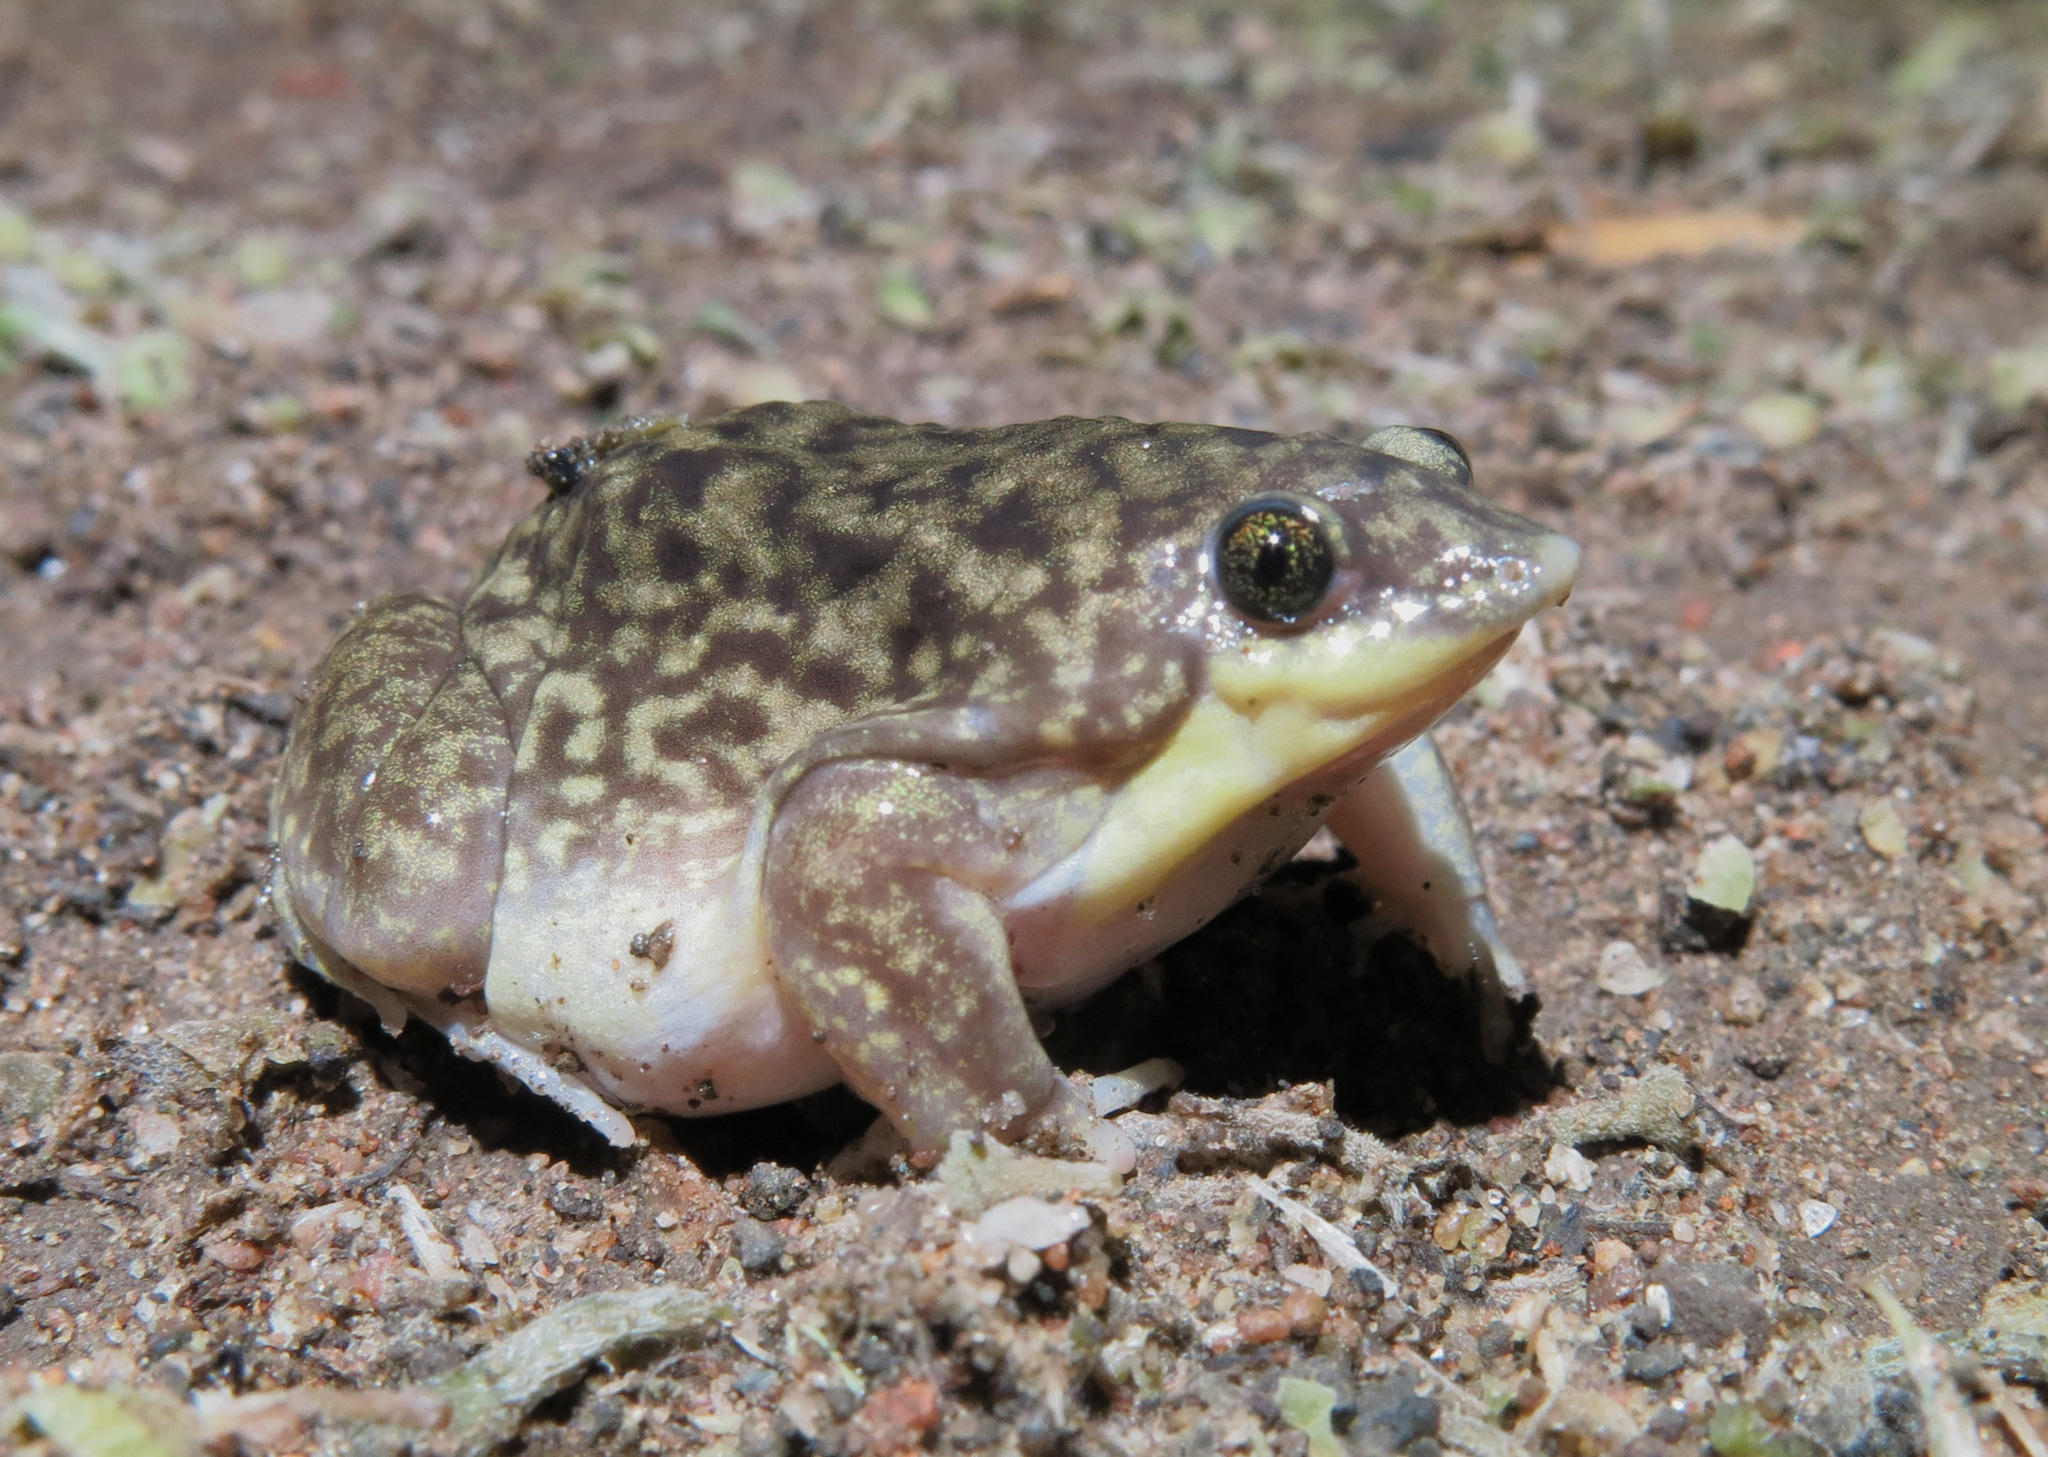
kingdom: Animalia
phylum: Chordata
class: Amphibia
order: Anura
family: Hemisotidae
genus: Hemisus
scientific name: Hemisus marmoratus
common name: Mottled shovel-nosed frog
